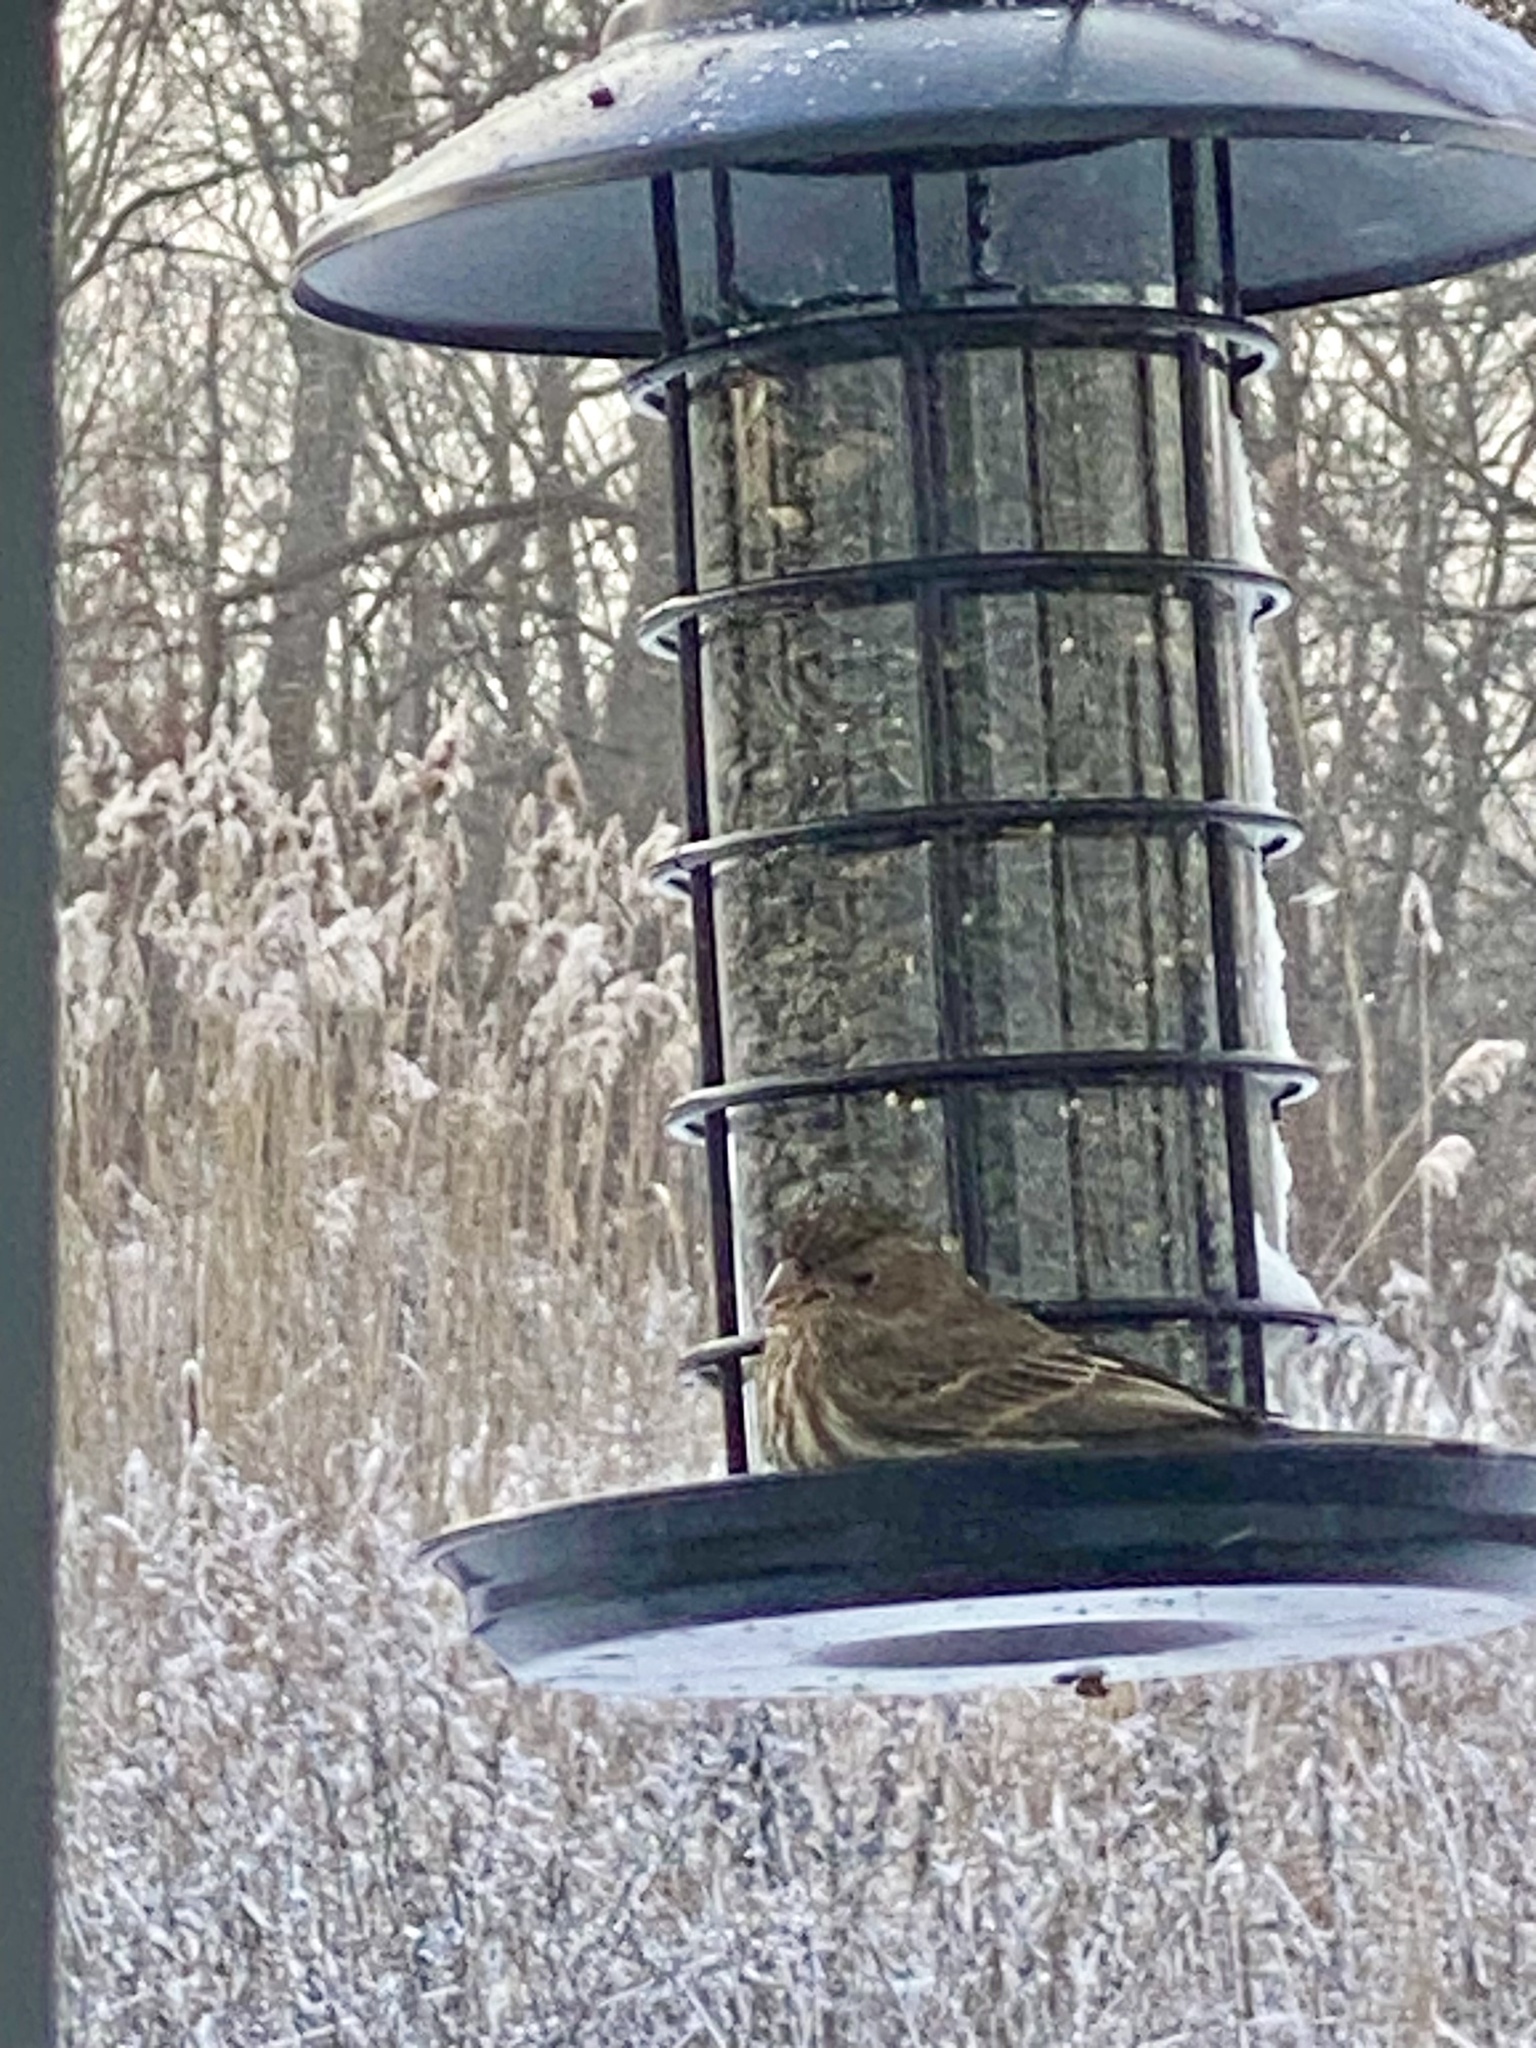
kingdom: Animalia
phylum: Chordata
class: Aves
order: Passeriformes
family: Fringillidae
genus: Haemorhous
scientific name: Haemorhous mexicanus
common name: House finch
